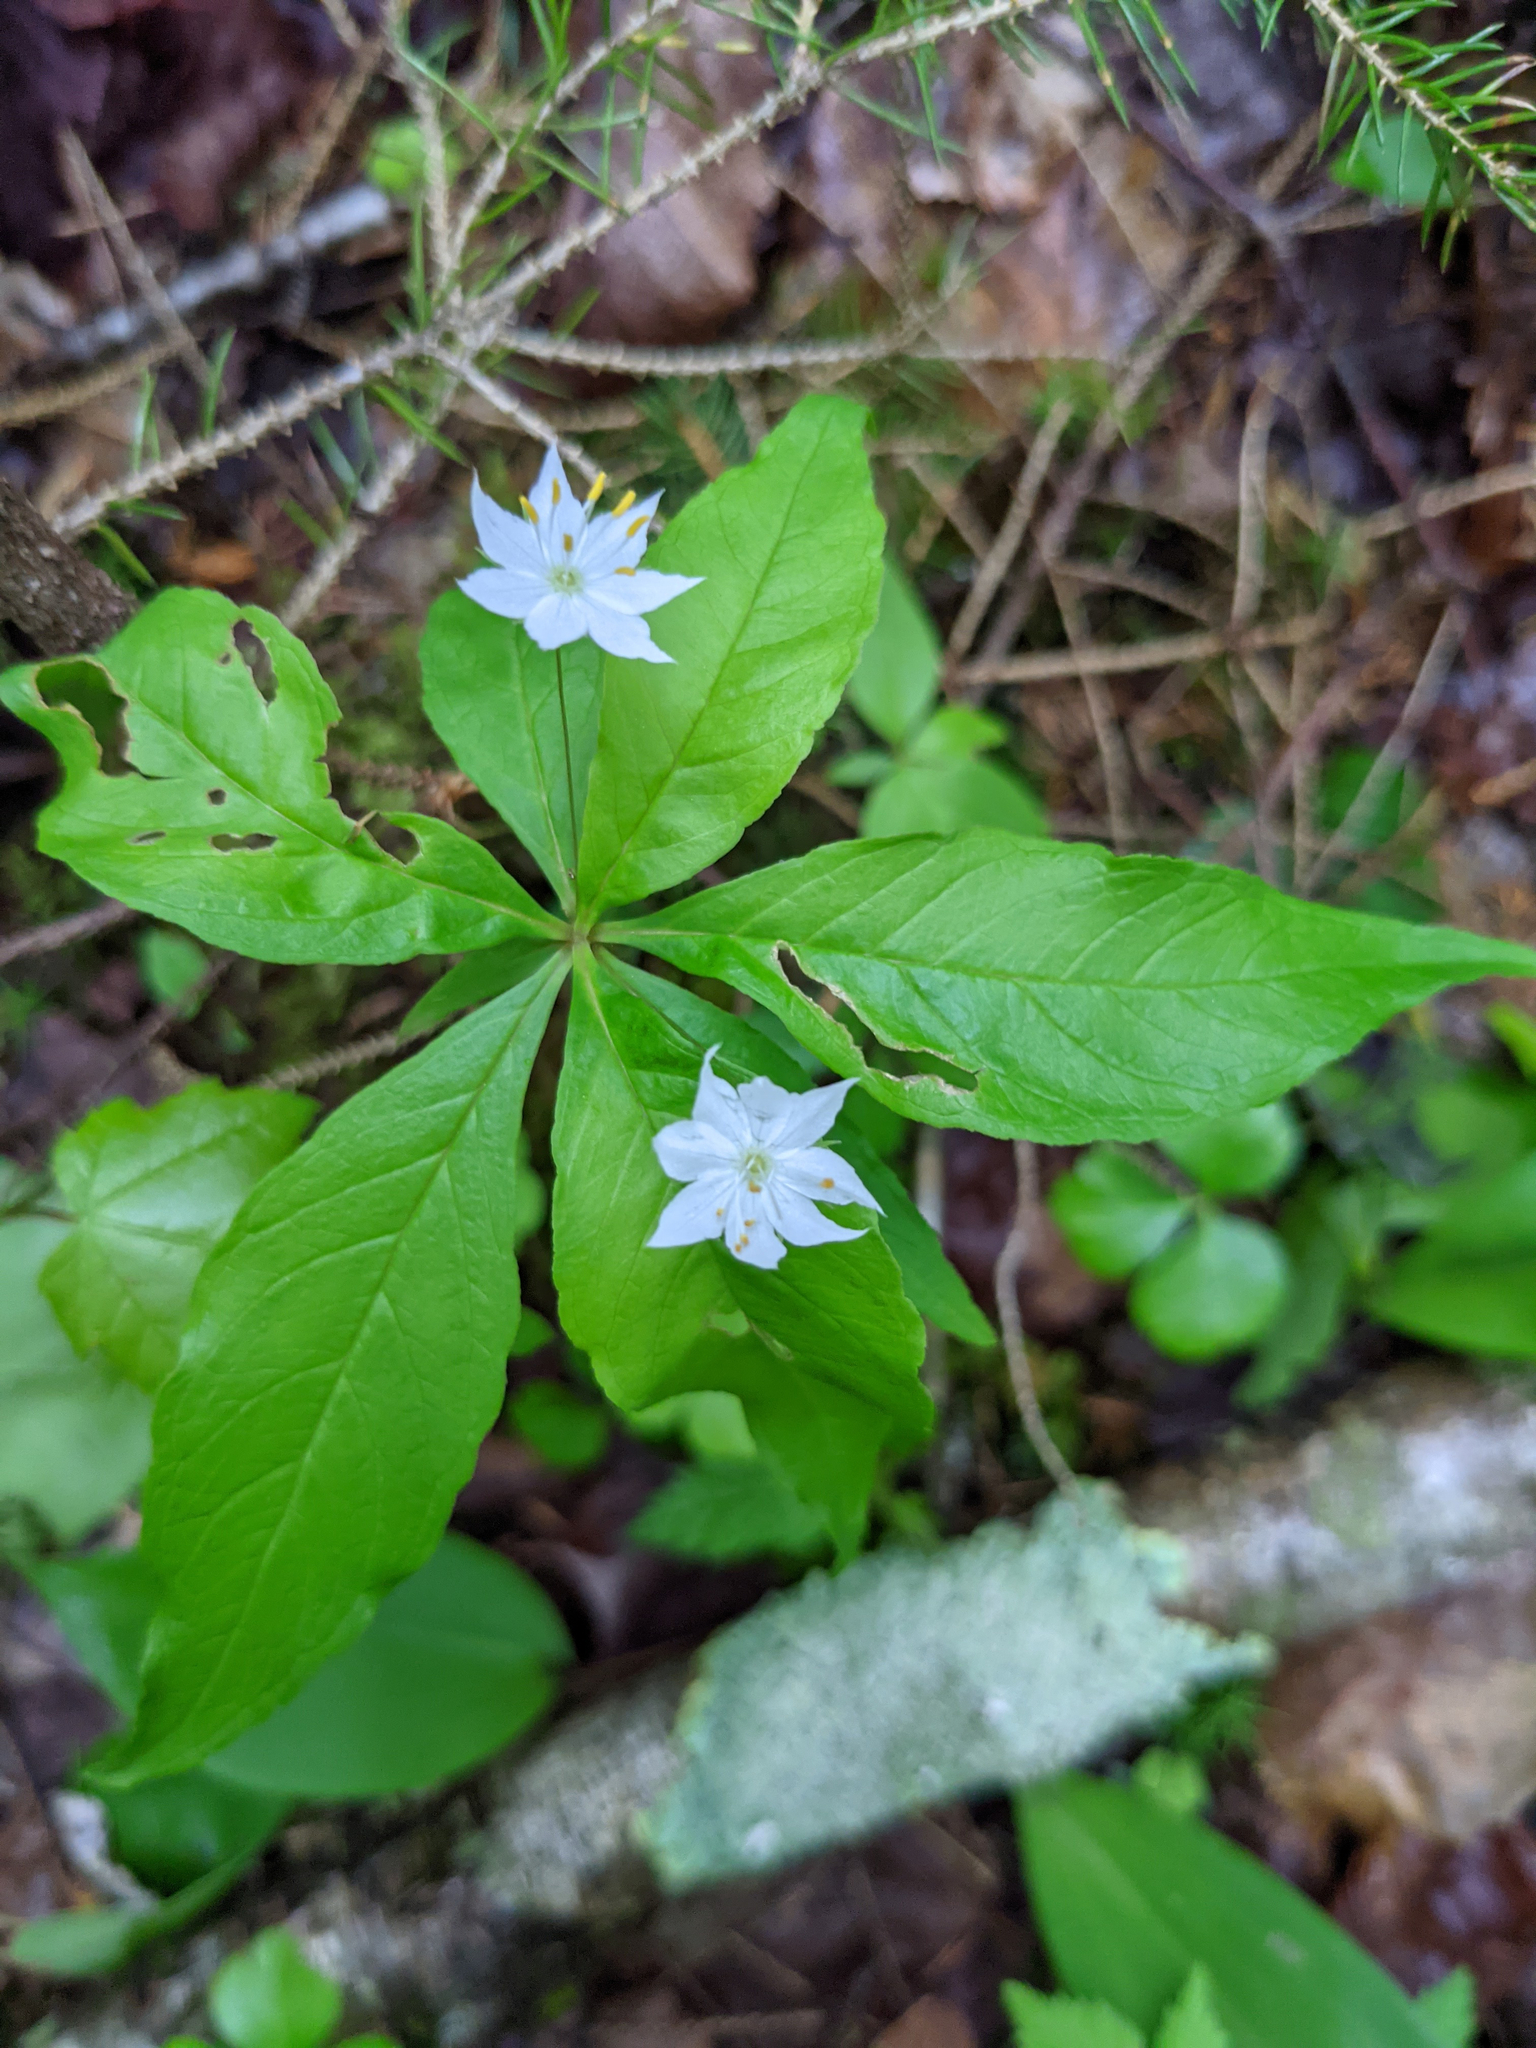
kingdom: Plantae
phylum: Tracheophyta
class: Magnoliopsida
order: Ericales
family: Primulaceae
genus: Lysimachia
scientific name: Lysimachia borealis
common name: American starflower
